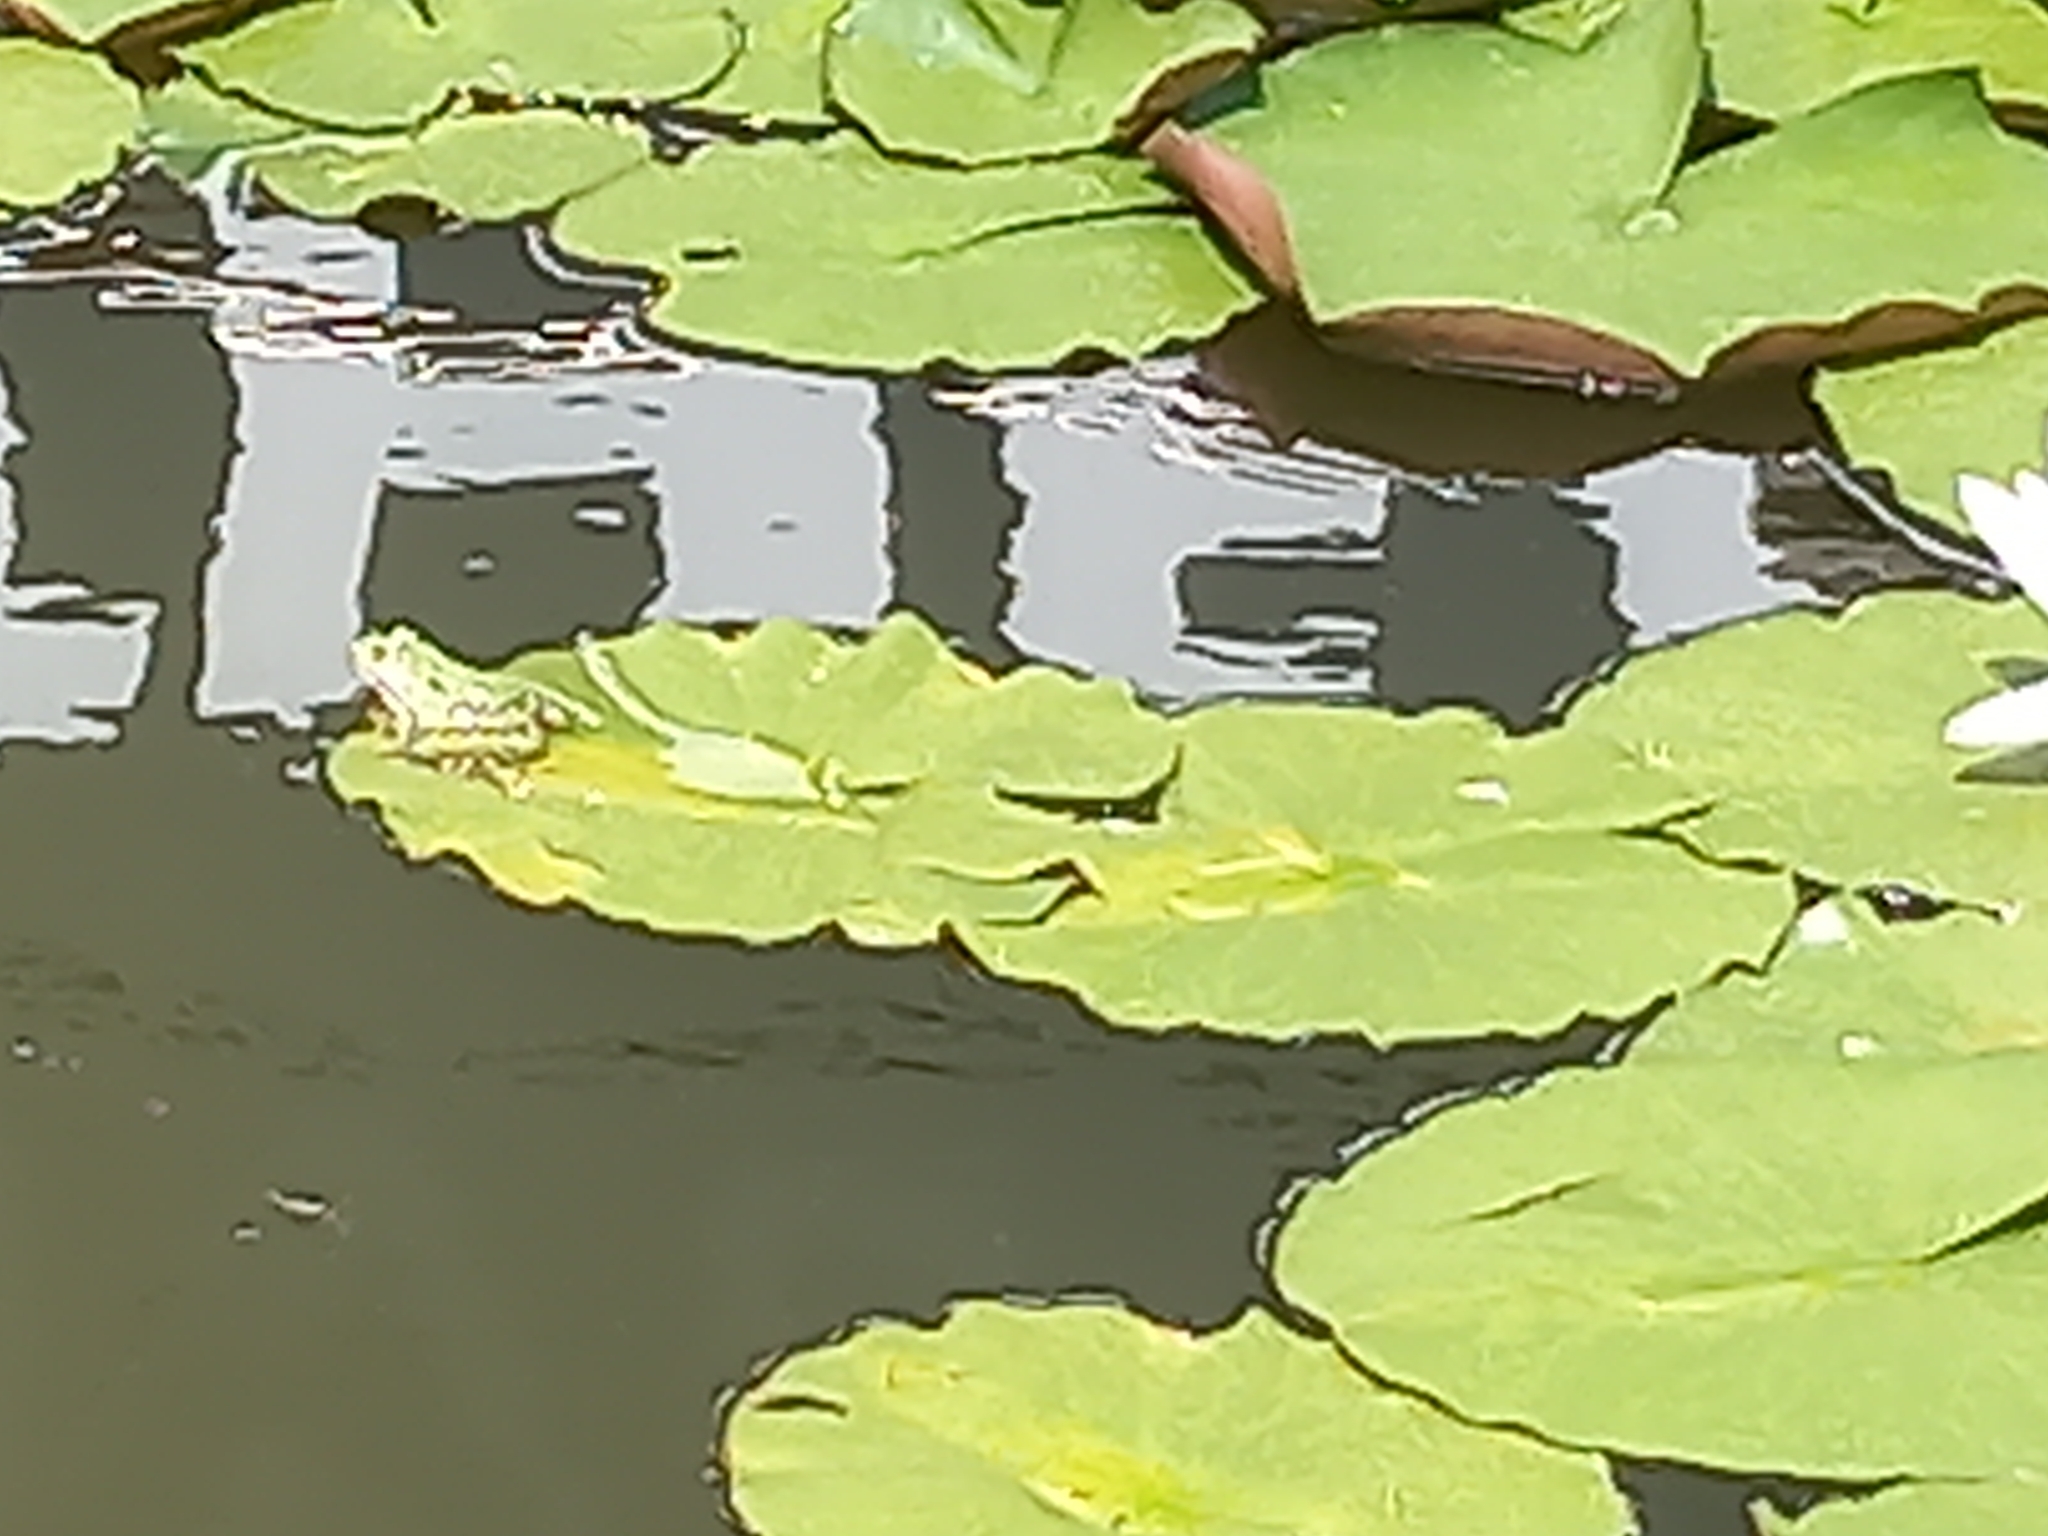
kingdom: Animalia
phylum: Chordata
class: Amphibia
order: Anura
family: Ranidae
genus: Pelophylax
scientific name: Pelophylax
